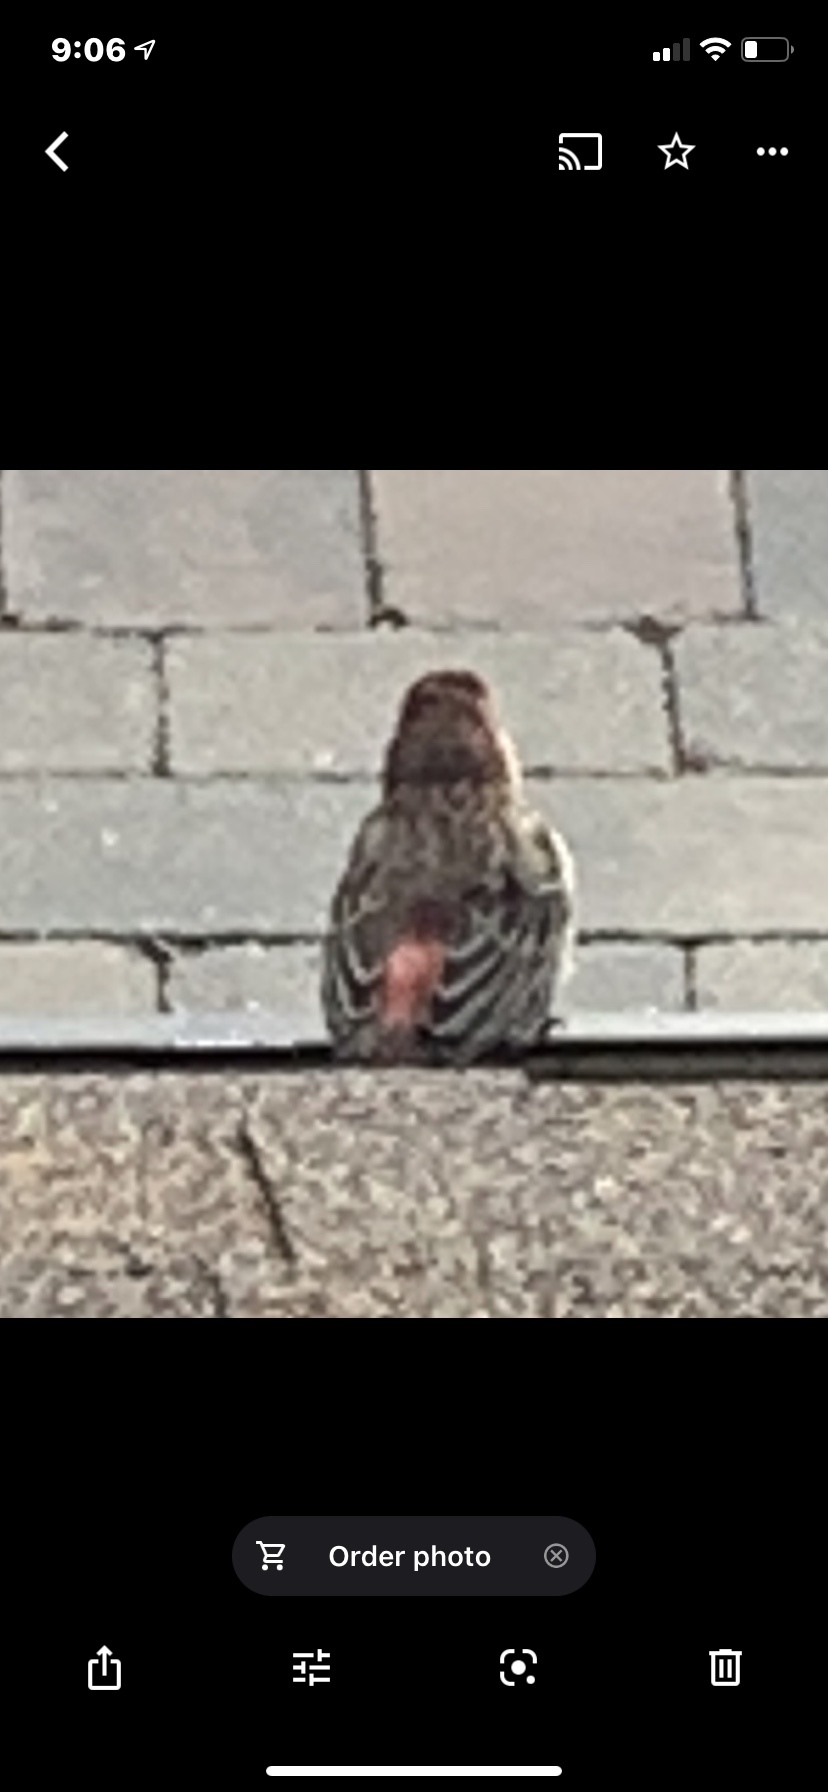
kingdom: Animalia
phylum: Chordata
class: Aves
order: Passeriformes
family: Fringillidae
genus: Haemorhous
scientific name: Haemorhous mexicanus
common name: House finch
